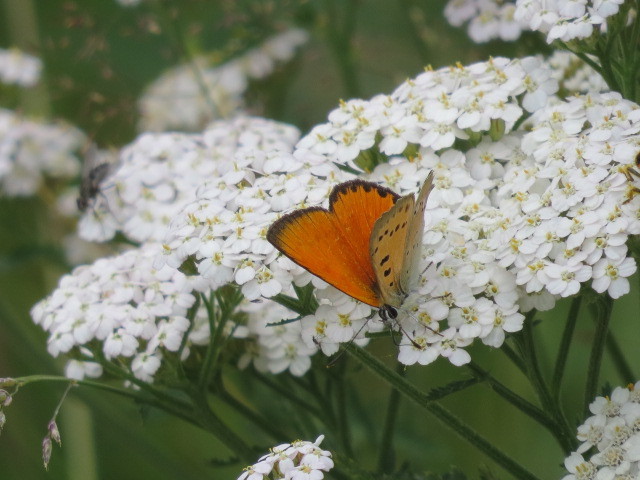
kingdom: Animalia
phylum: Arthropoda
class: Insecta
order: Lepidoptera
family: Lycaenidae
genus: Lycaena
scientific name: Lycaena virgaureae
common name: Scarce copper
